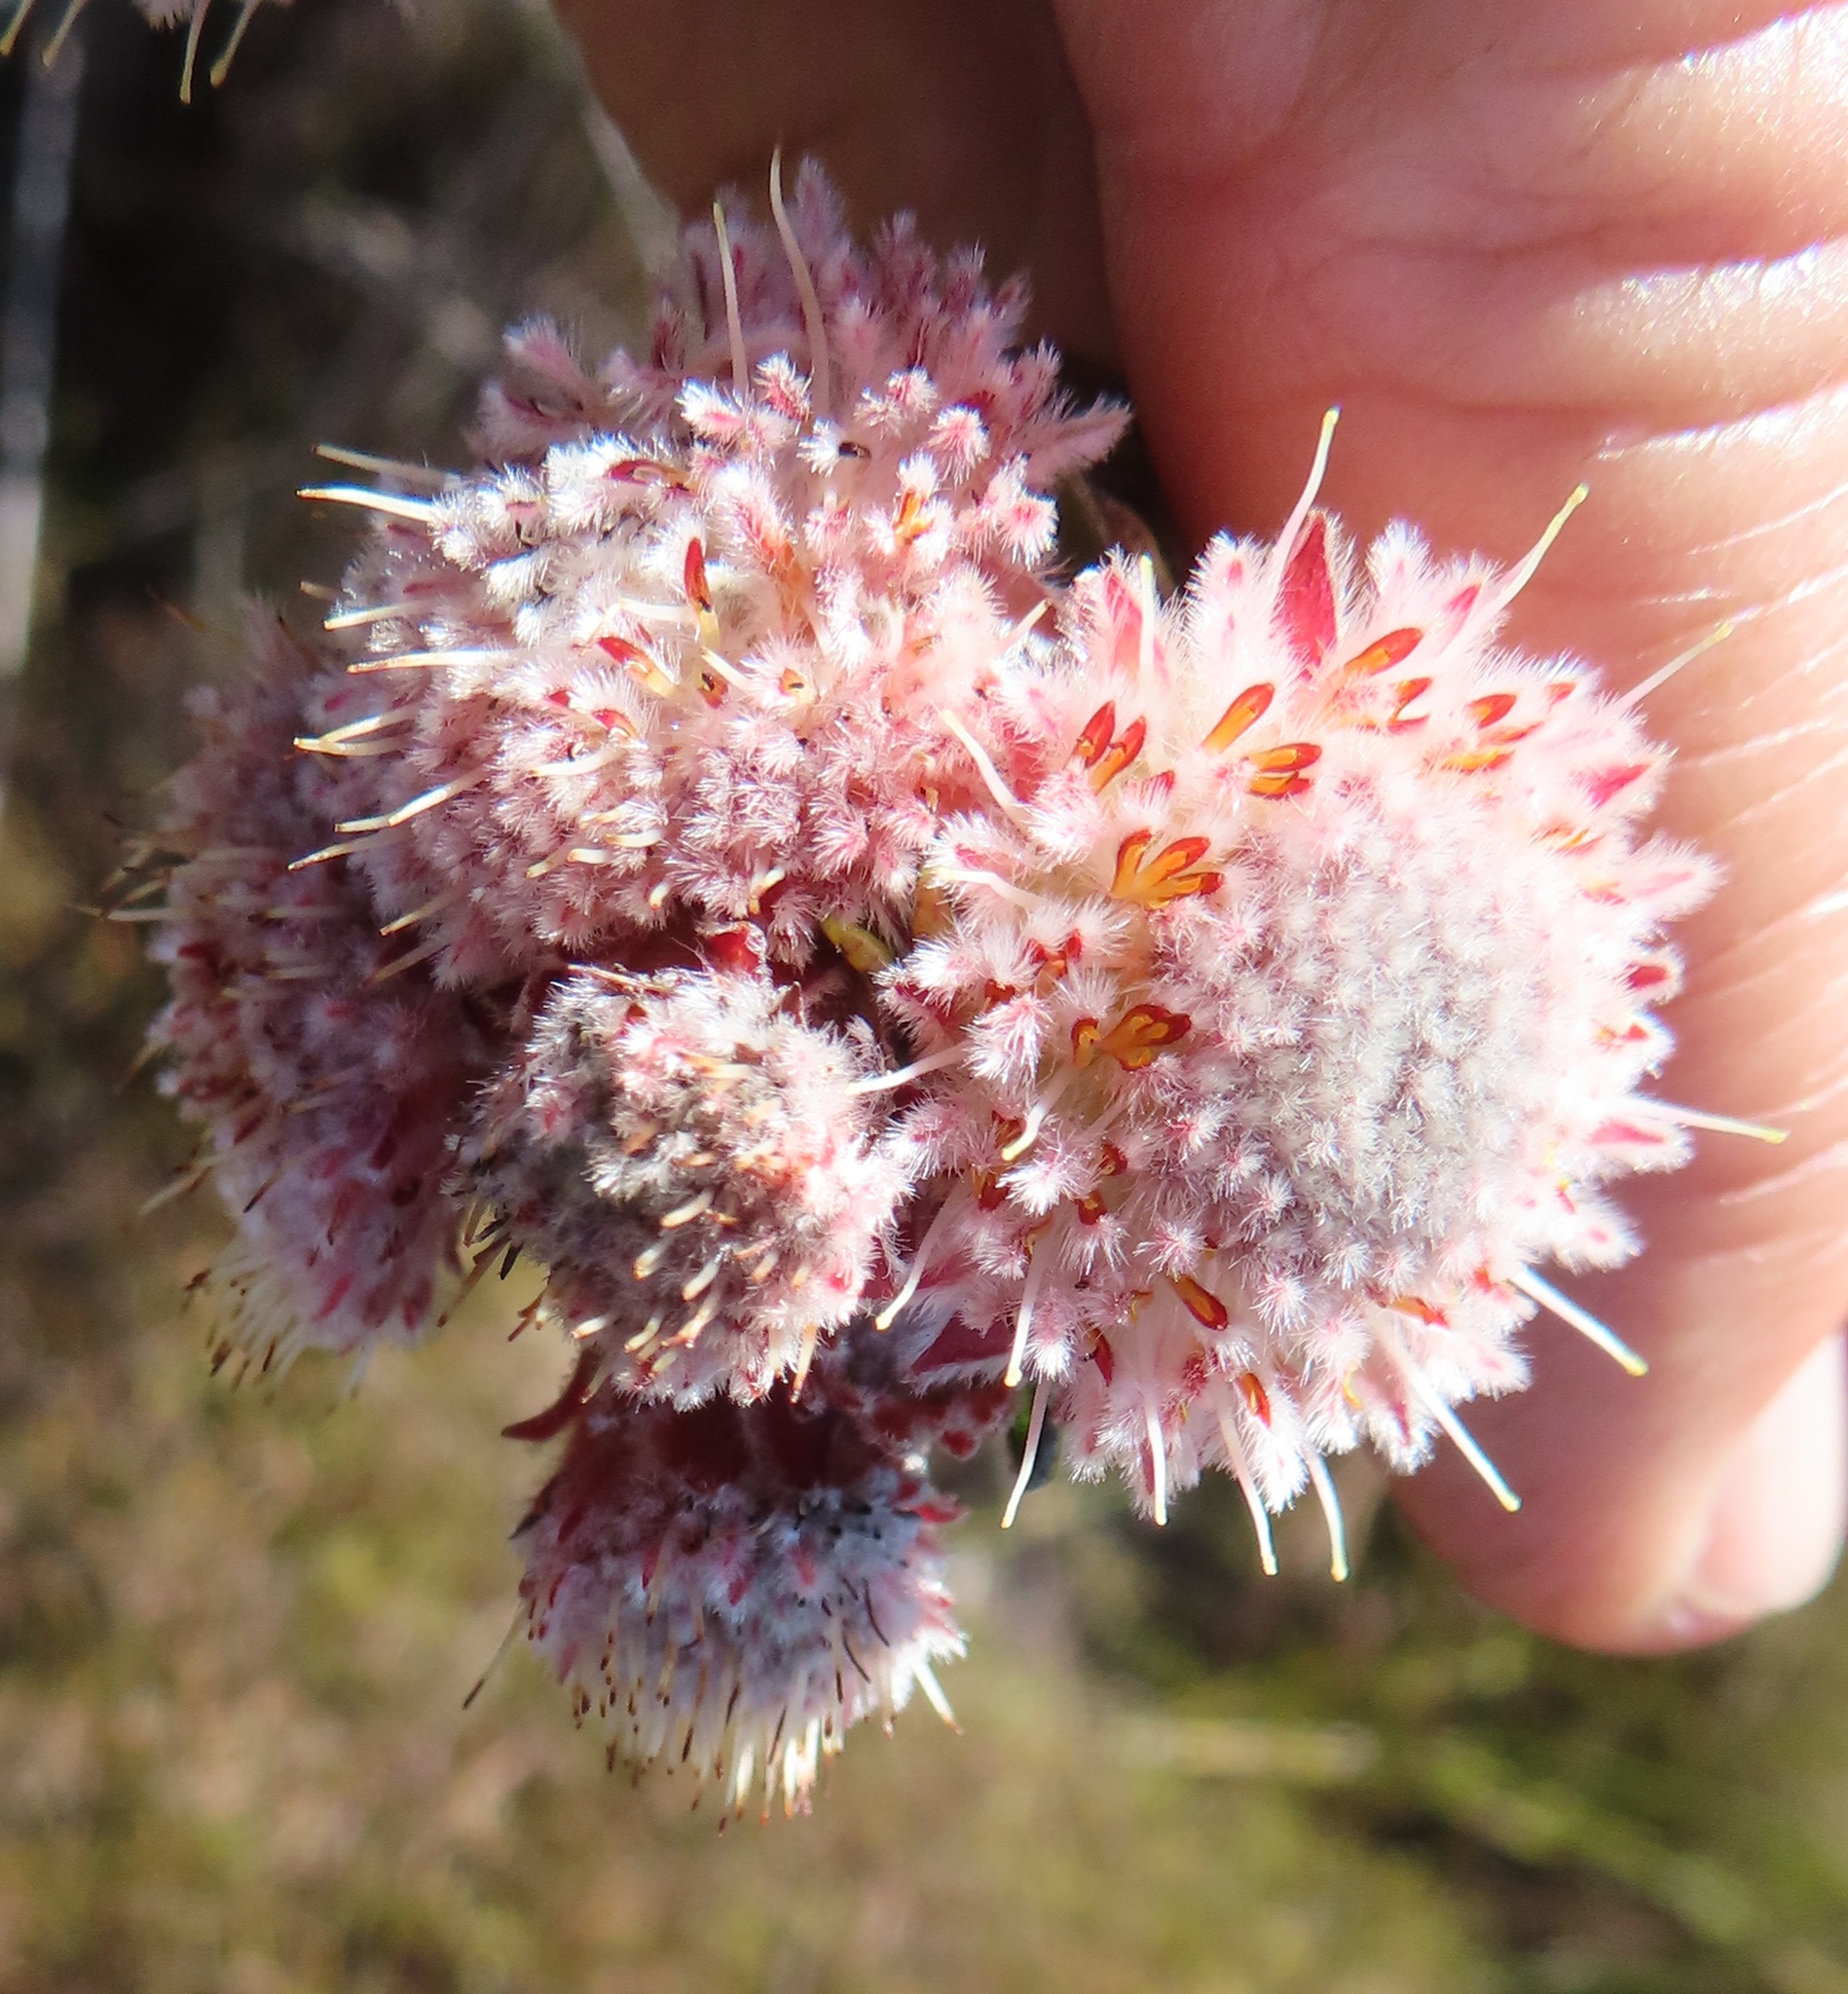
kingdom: Plantae
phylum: Tracheophyta
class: Magnoliopsida
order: Proteales
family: Proteaceae
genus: Diastella
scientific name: Diastella thymelaeoides
